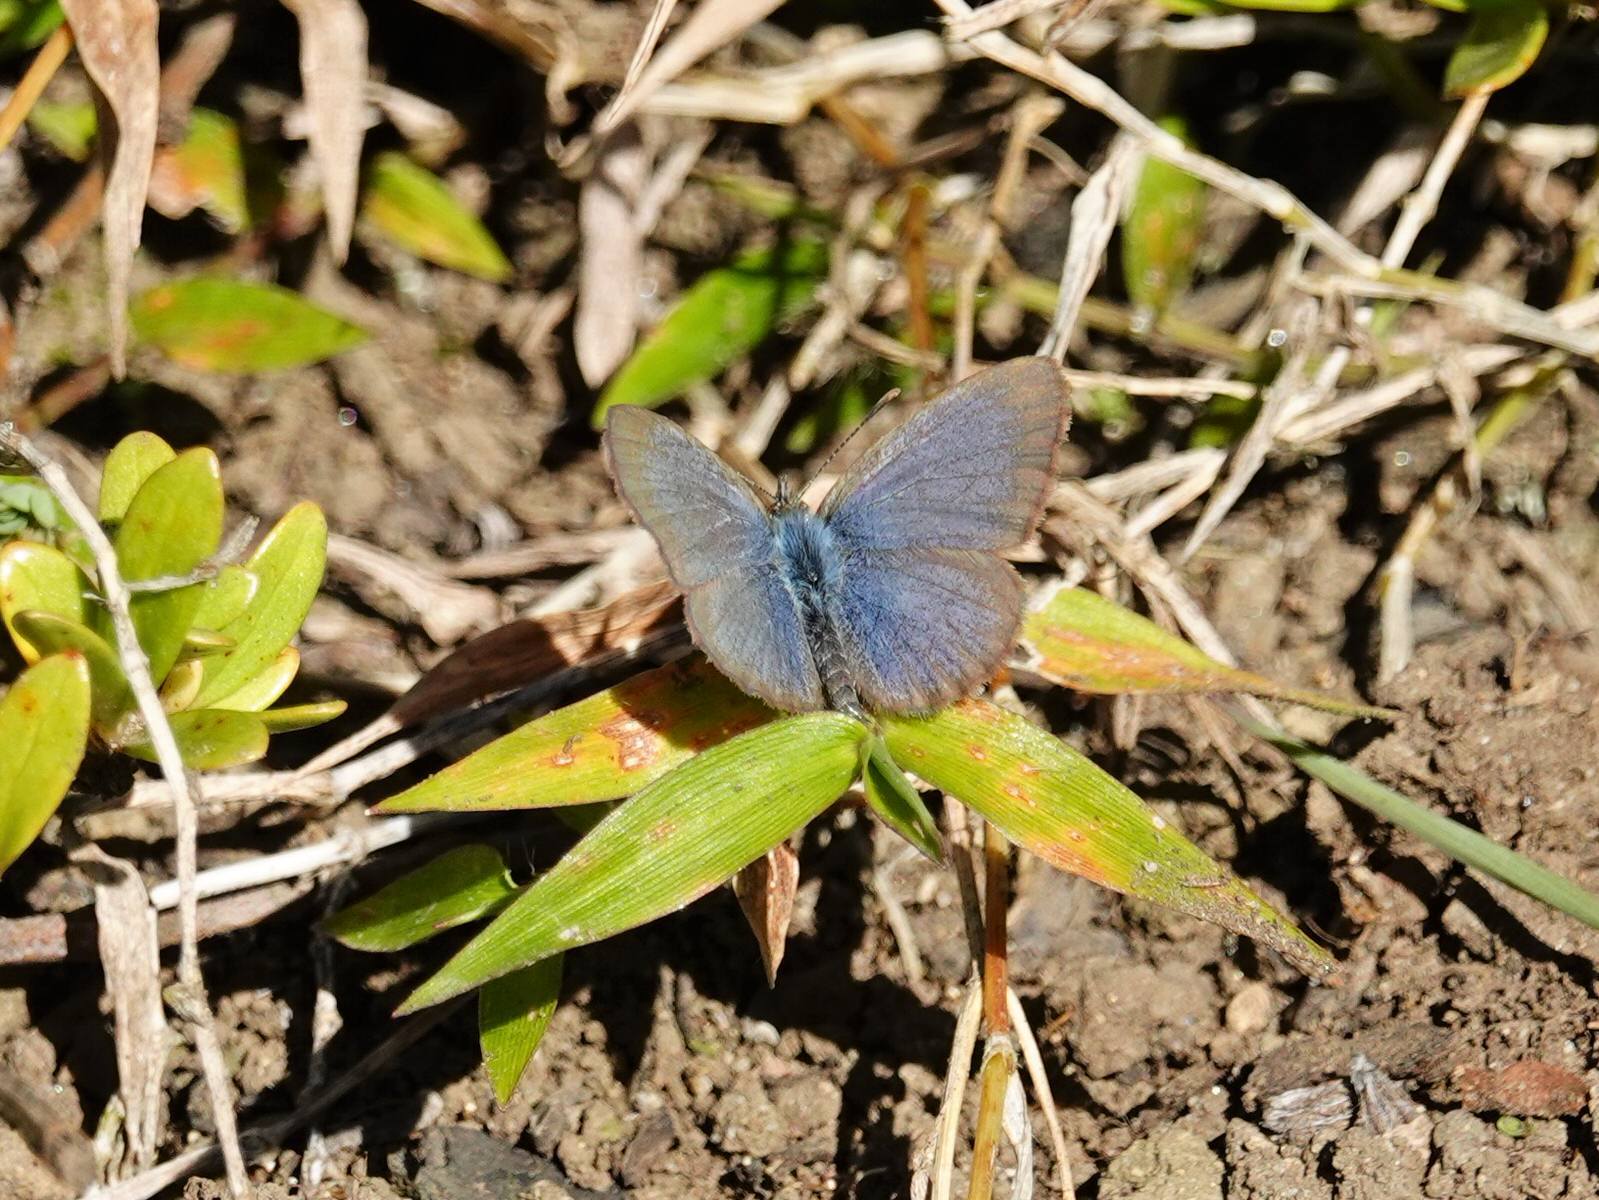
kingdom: Animalia
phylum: Arthropoda
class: Insecta
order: Lepidoptera
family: Lycaenidae
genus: Zizina
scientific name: Zizina labradus
